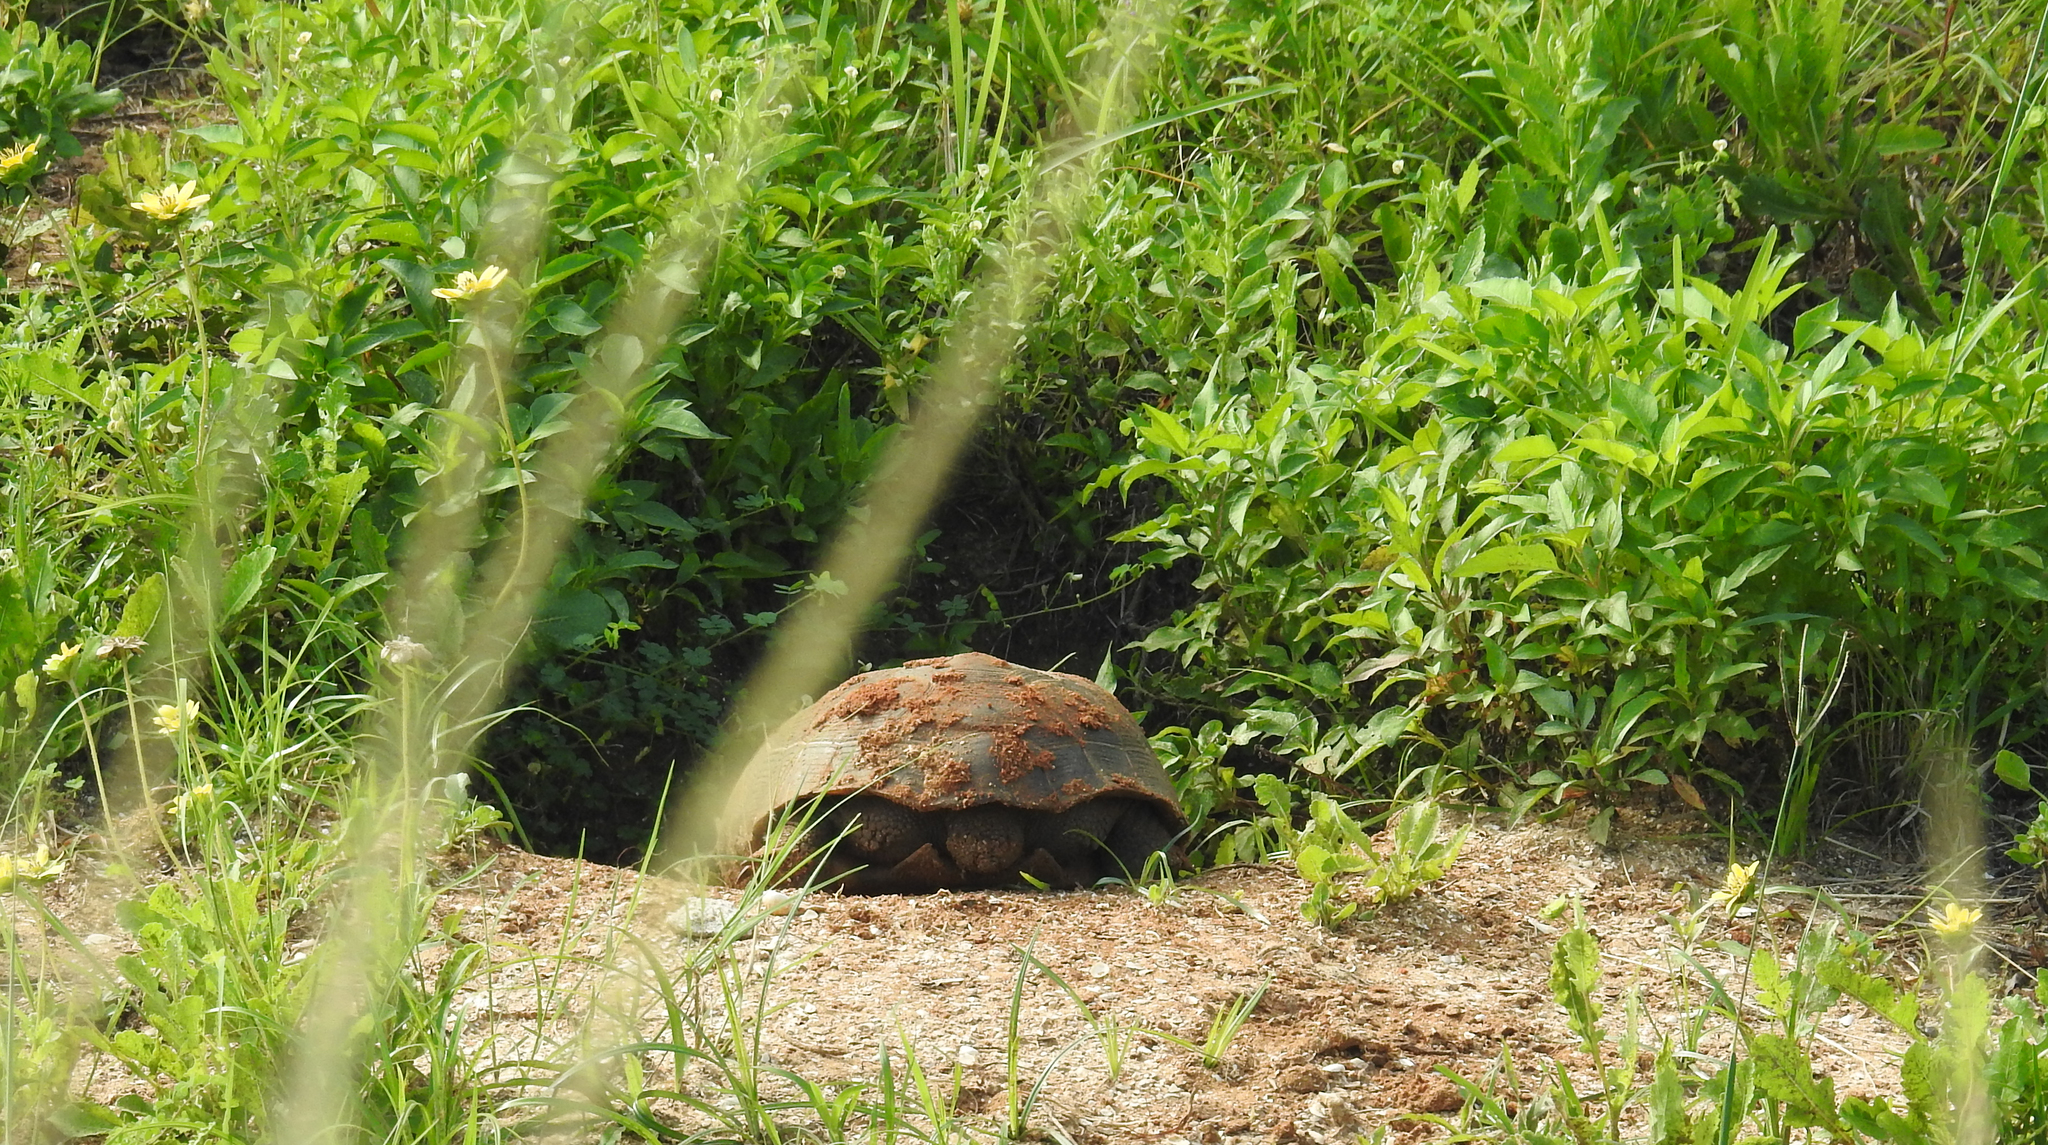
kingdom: Animalia
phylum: Chordata
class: Testudines
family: Testudinidae
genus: Gopherus
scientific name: Gopherus polyphemus
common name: Florida gopher tortoise
